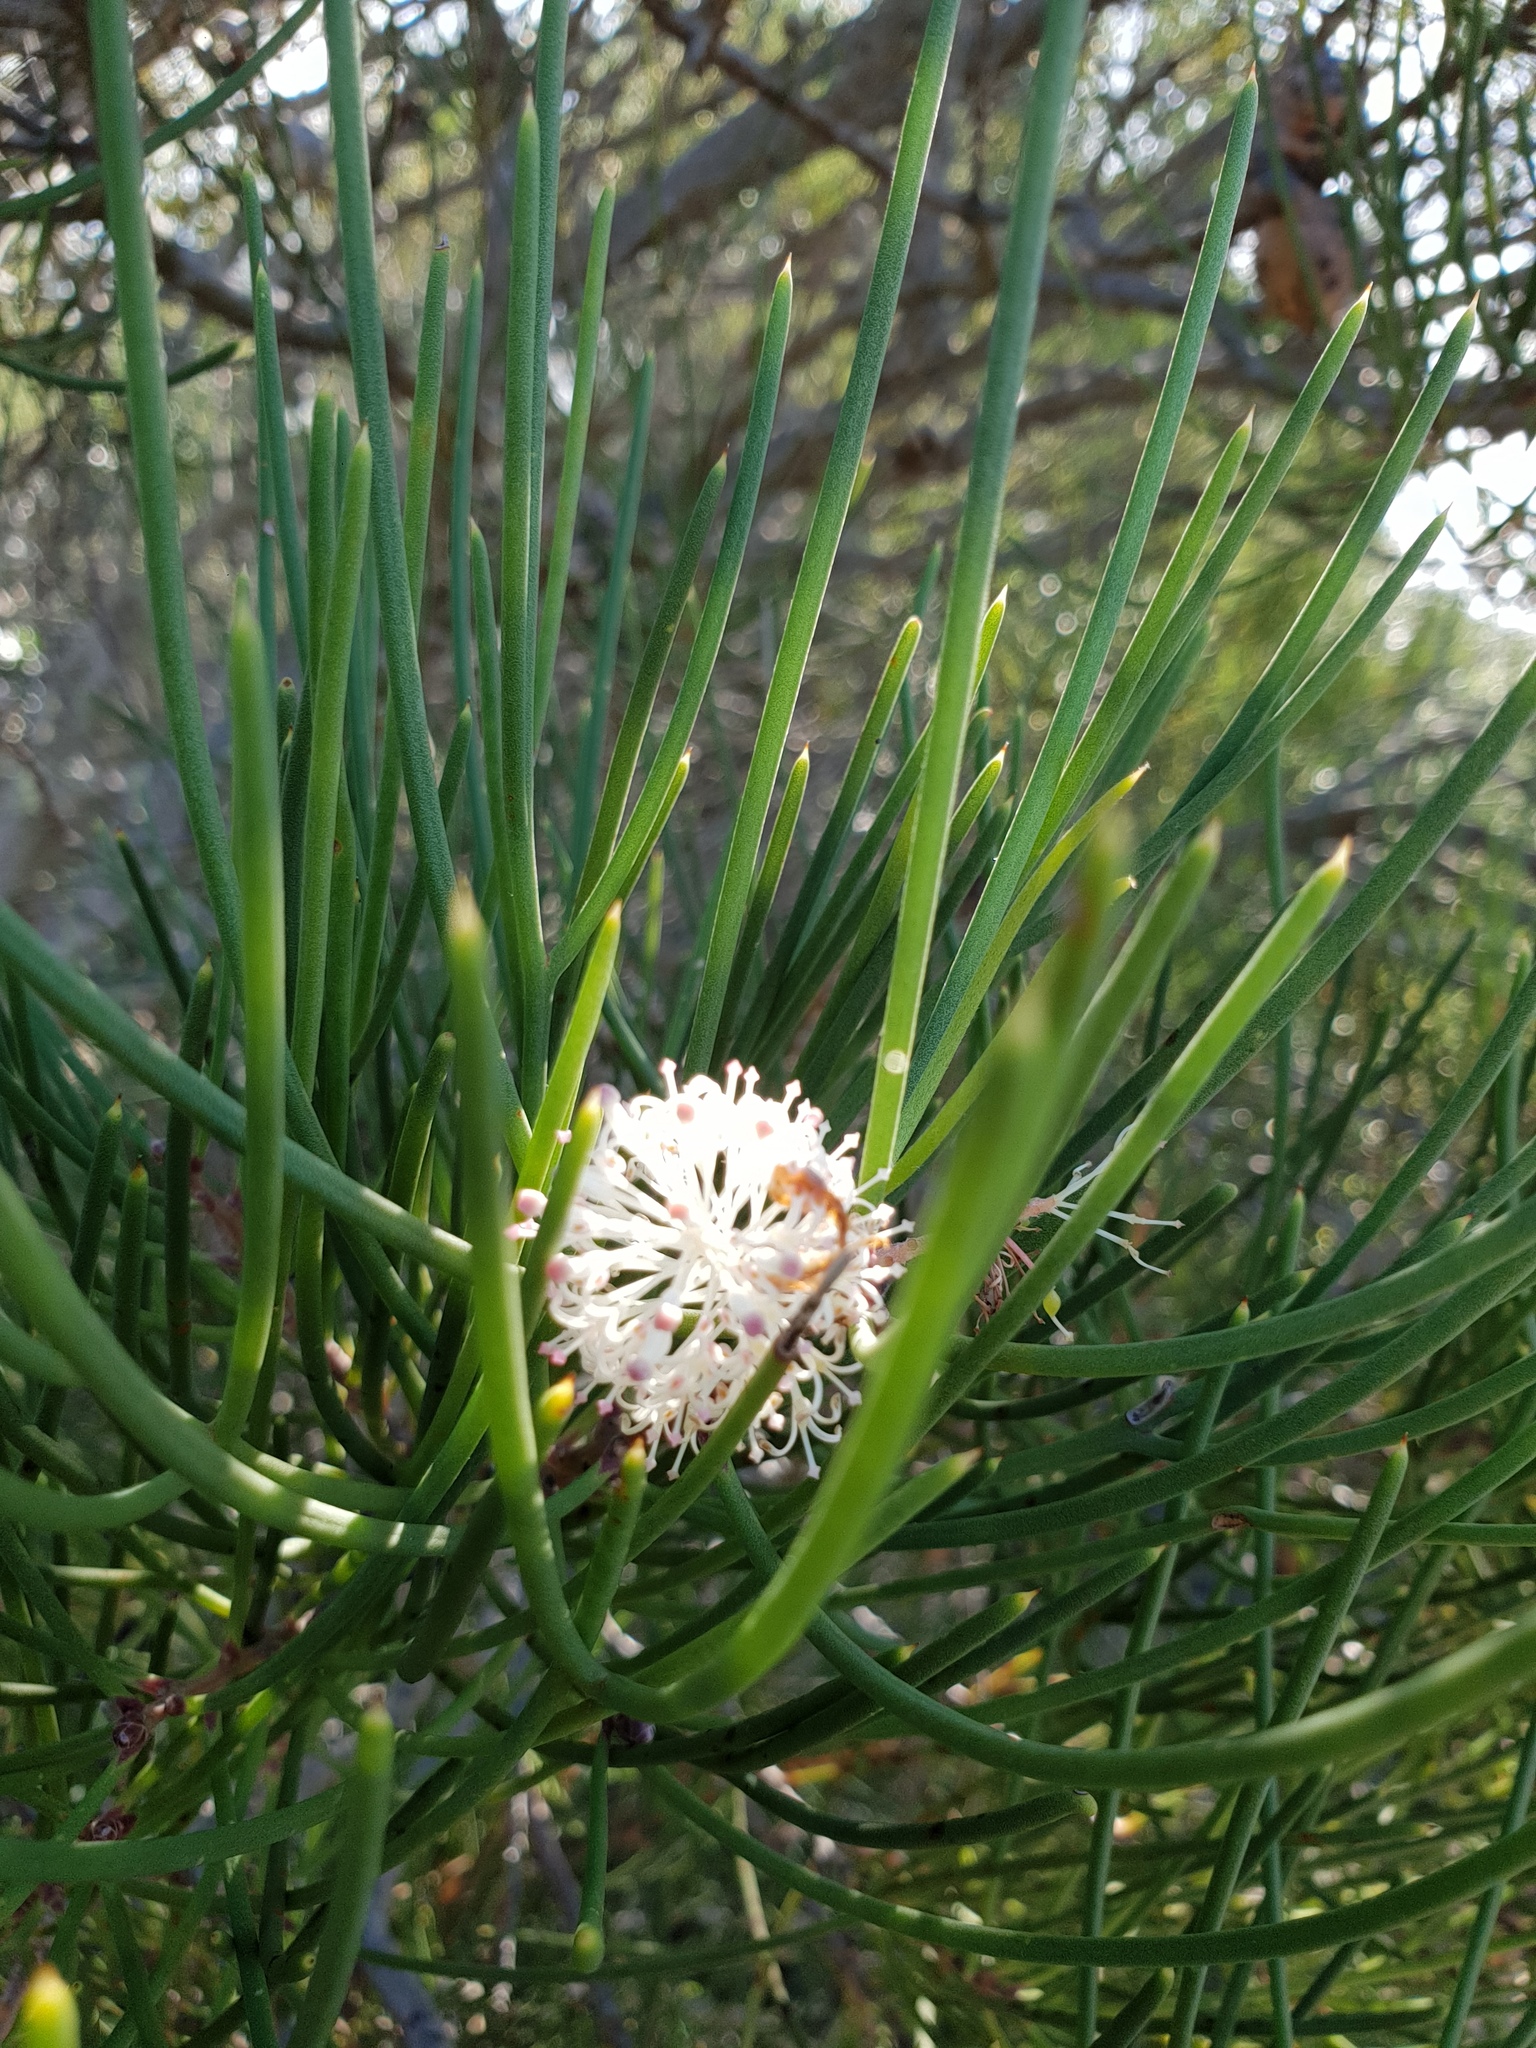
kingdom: Plantae
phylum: Tracheophyta
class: Magnoliopsida
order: Proteales
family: Proteaceae
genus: Hakea
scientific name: Hakea drupacea
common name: Sweet hakea
